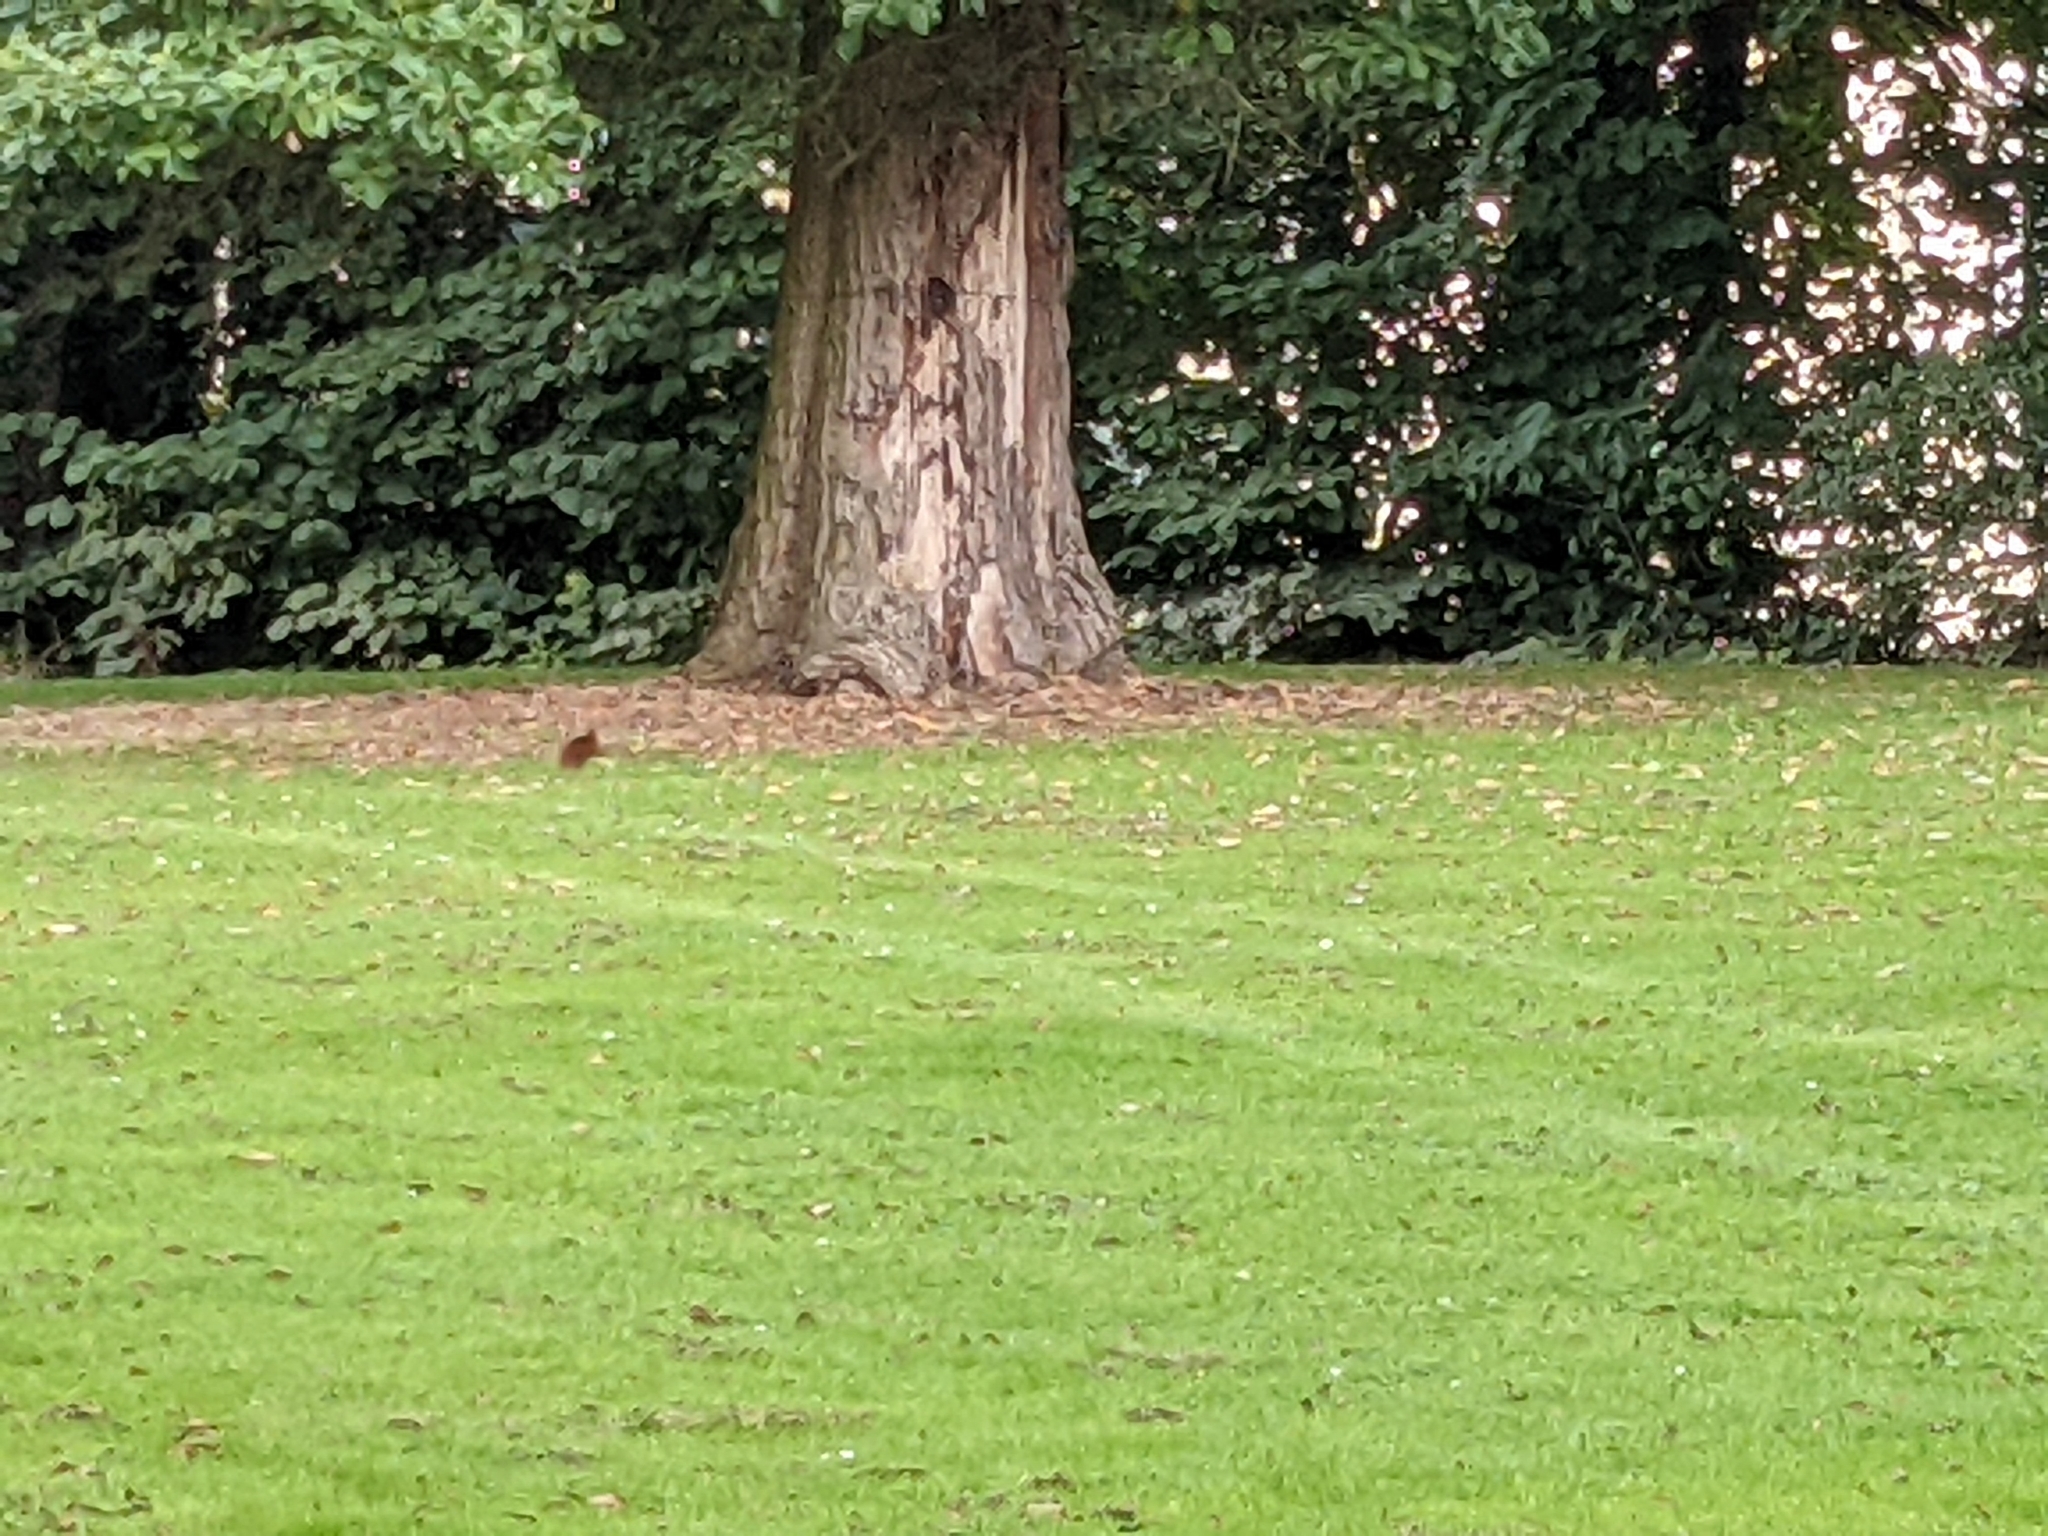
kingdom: Animalia
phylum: Chordata
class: Mammalia
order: Rodentia
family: Sciuridae
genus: Sciurus
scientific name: Sciurus vulgaris
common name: Eurasian red squirrel
